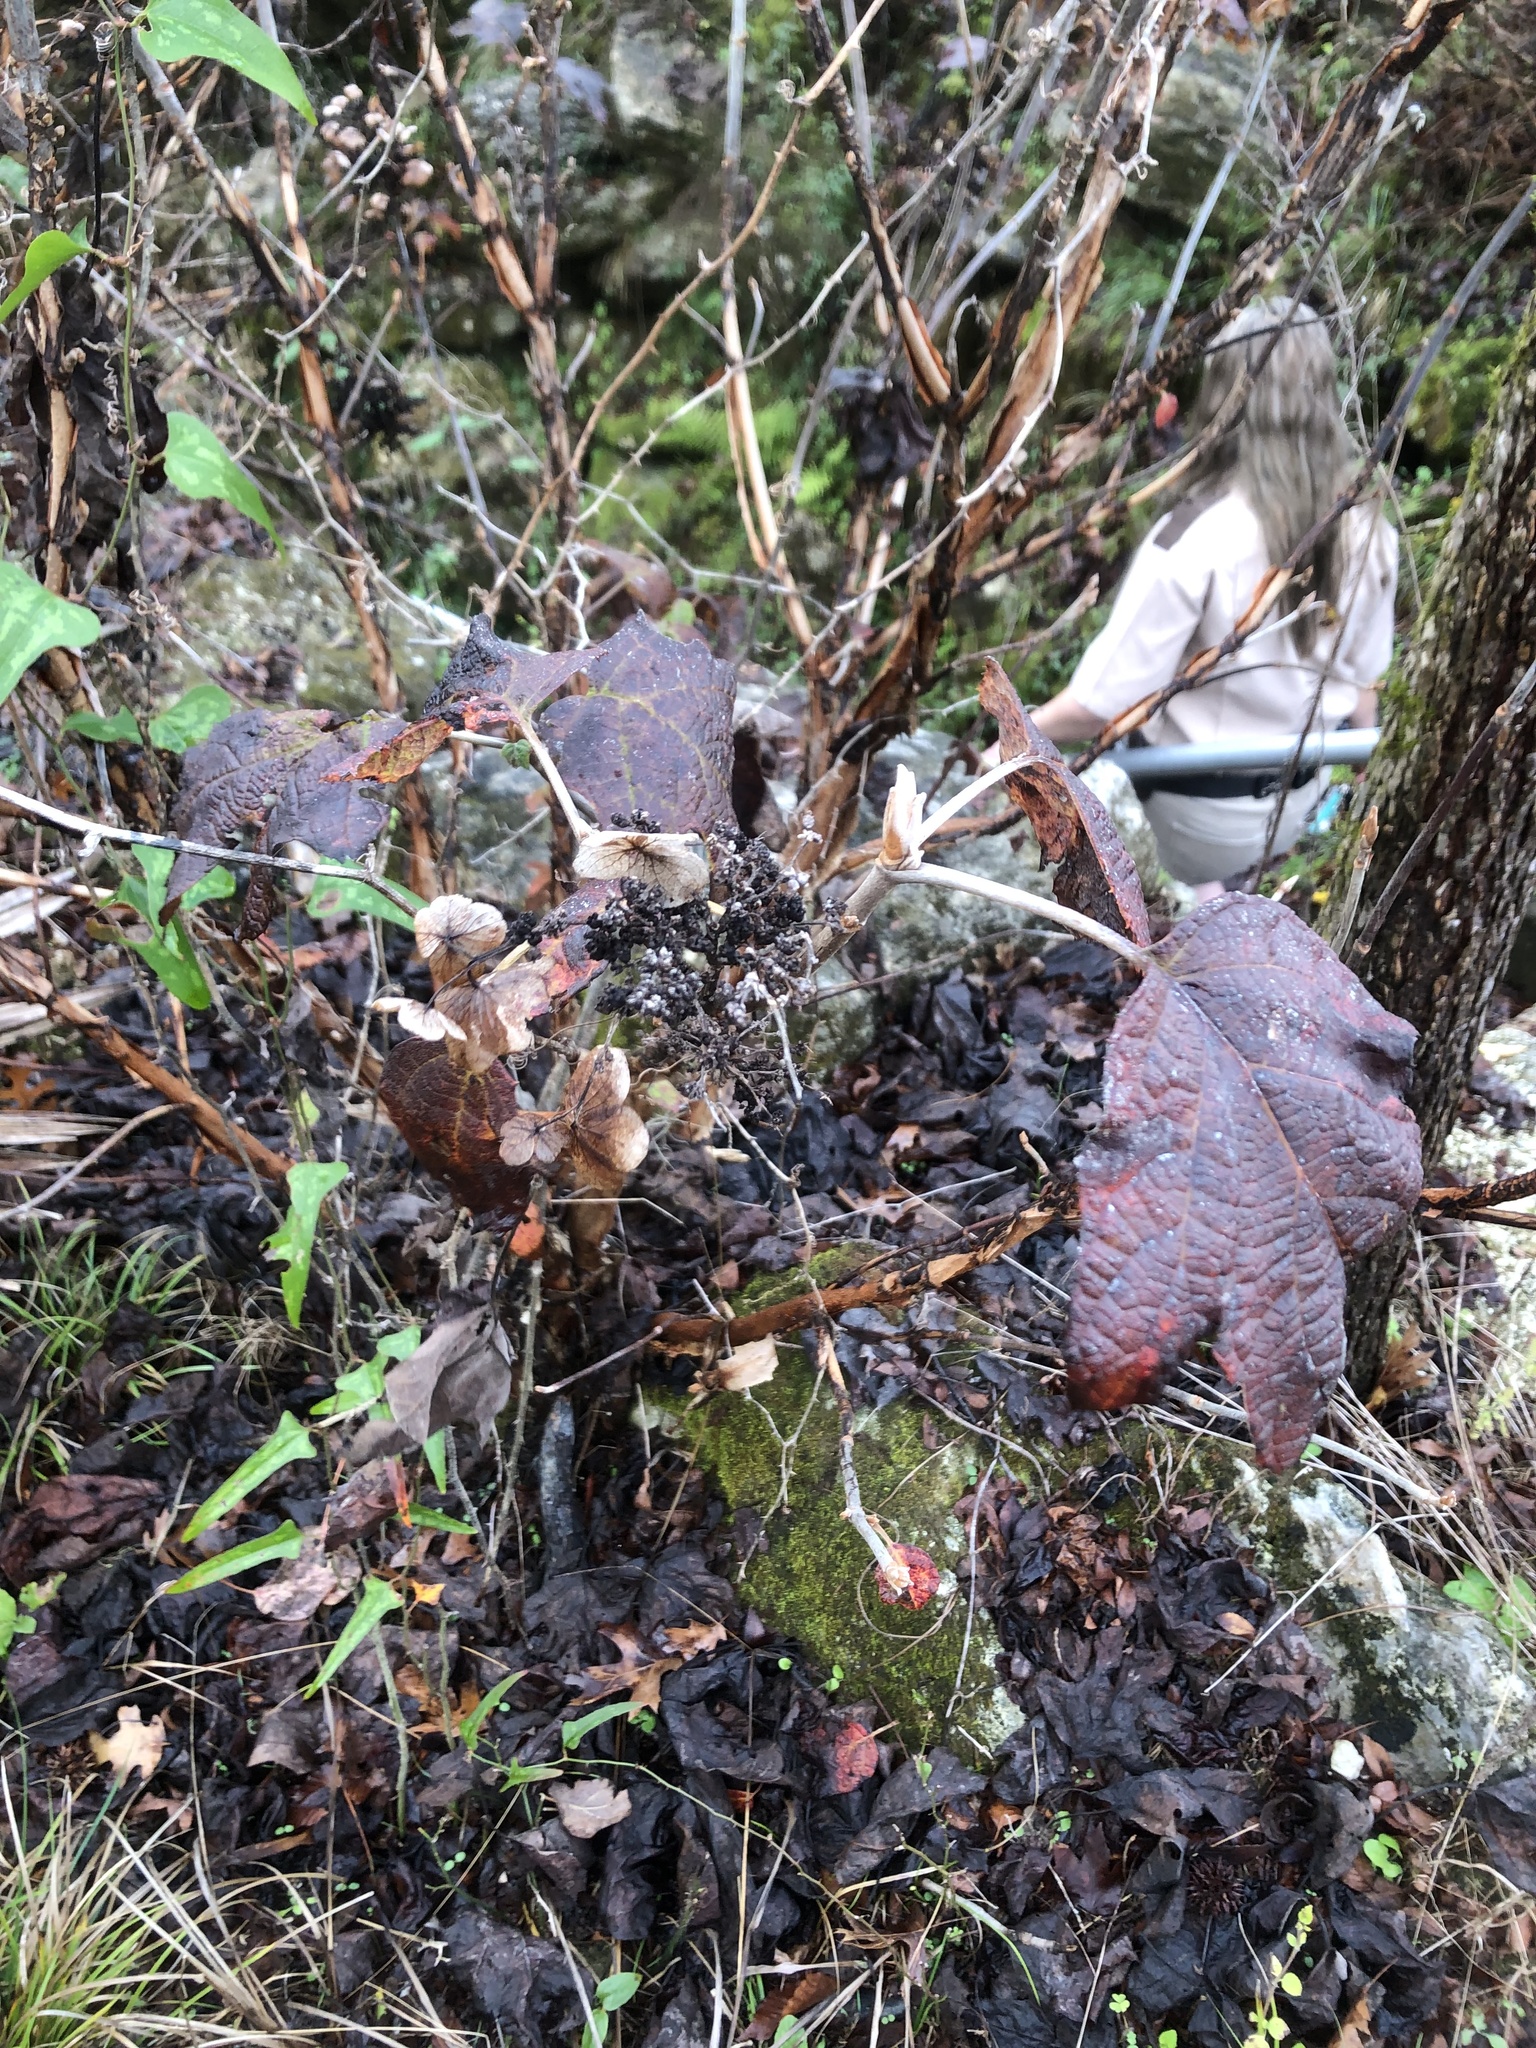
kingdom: Plantae
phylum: Tracheophyta
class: Magnoliopsida
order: Cornales
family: Hydrangeaceae
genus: Hydrangea
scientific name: Hydrangea quercifolia
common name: Oak-leaf hydrangea
